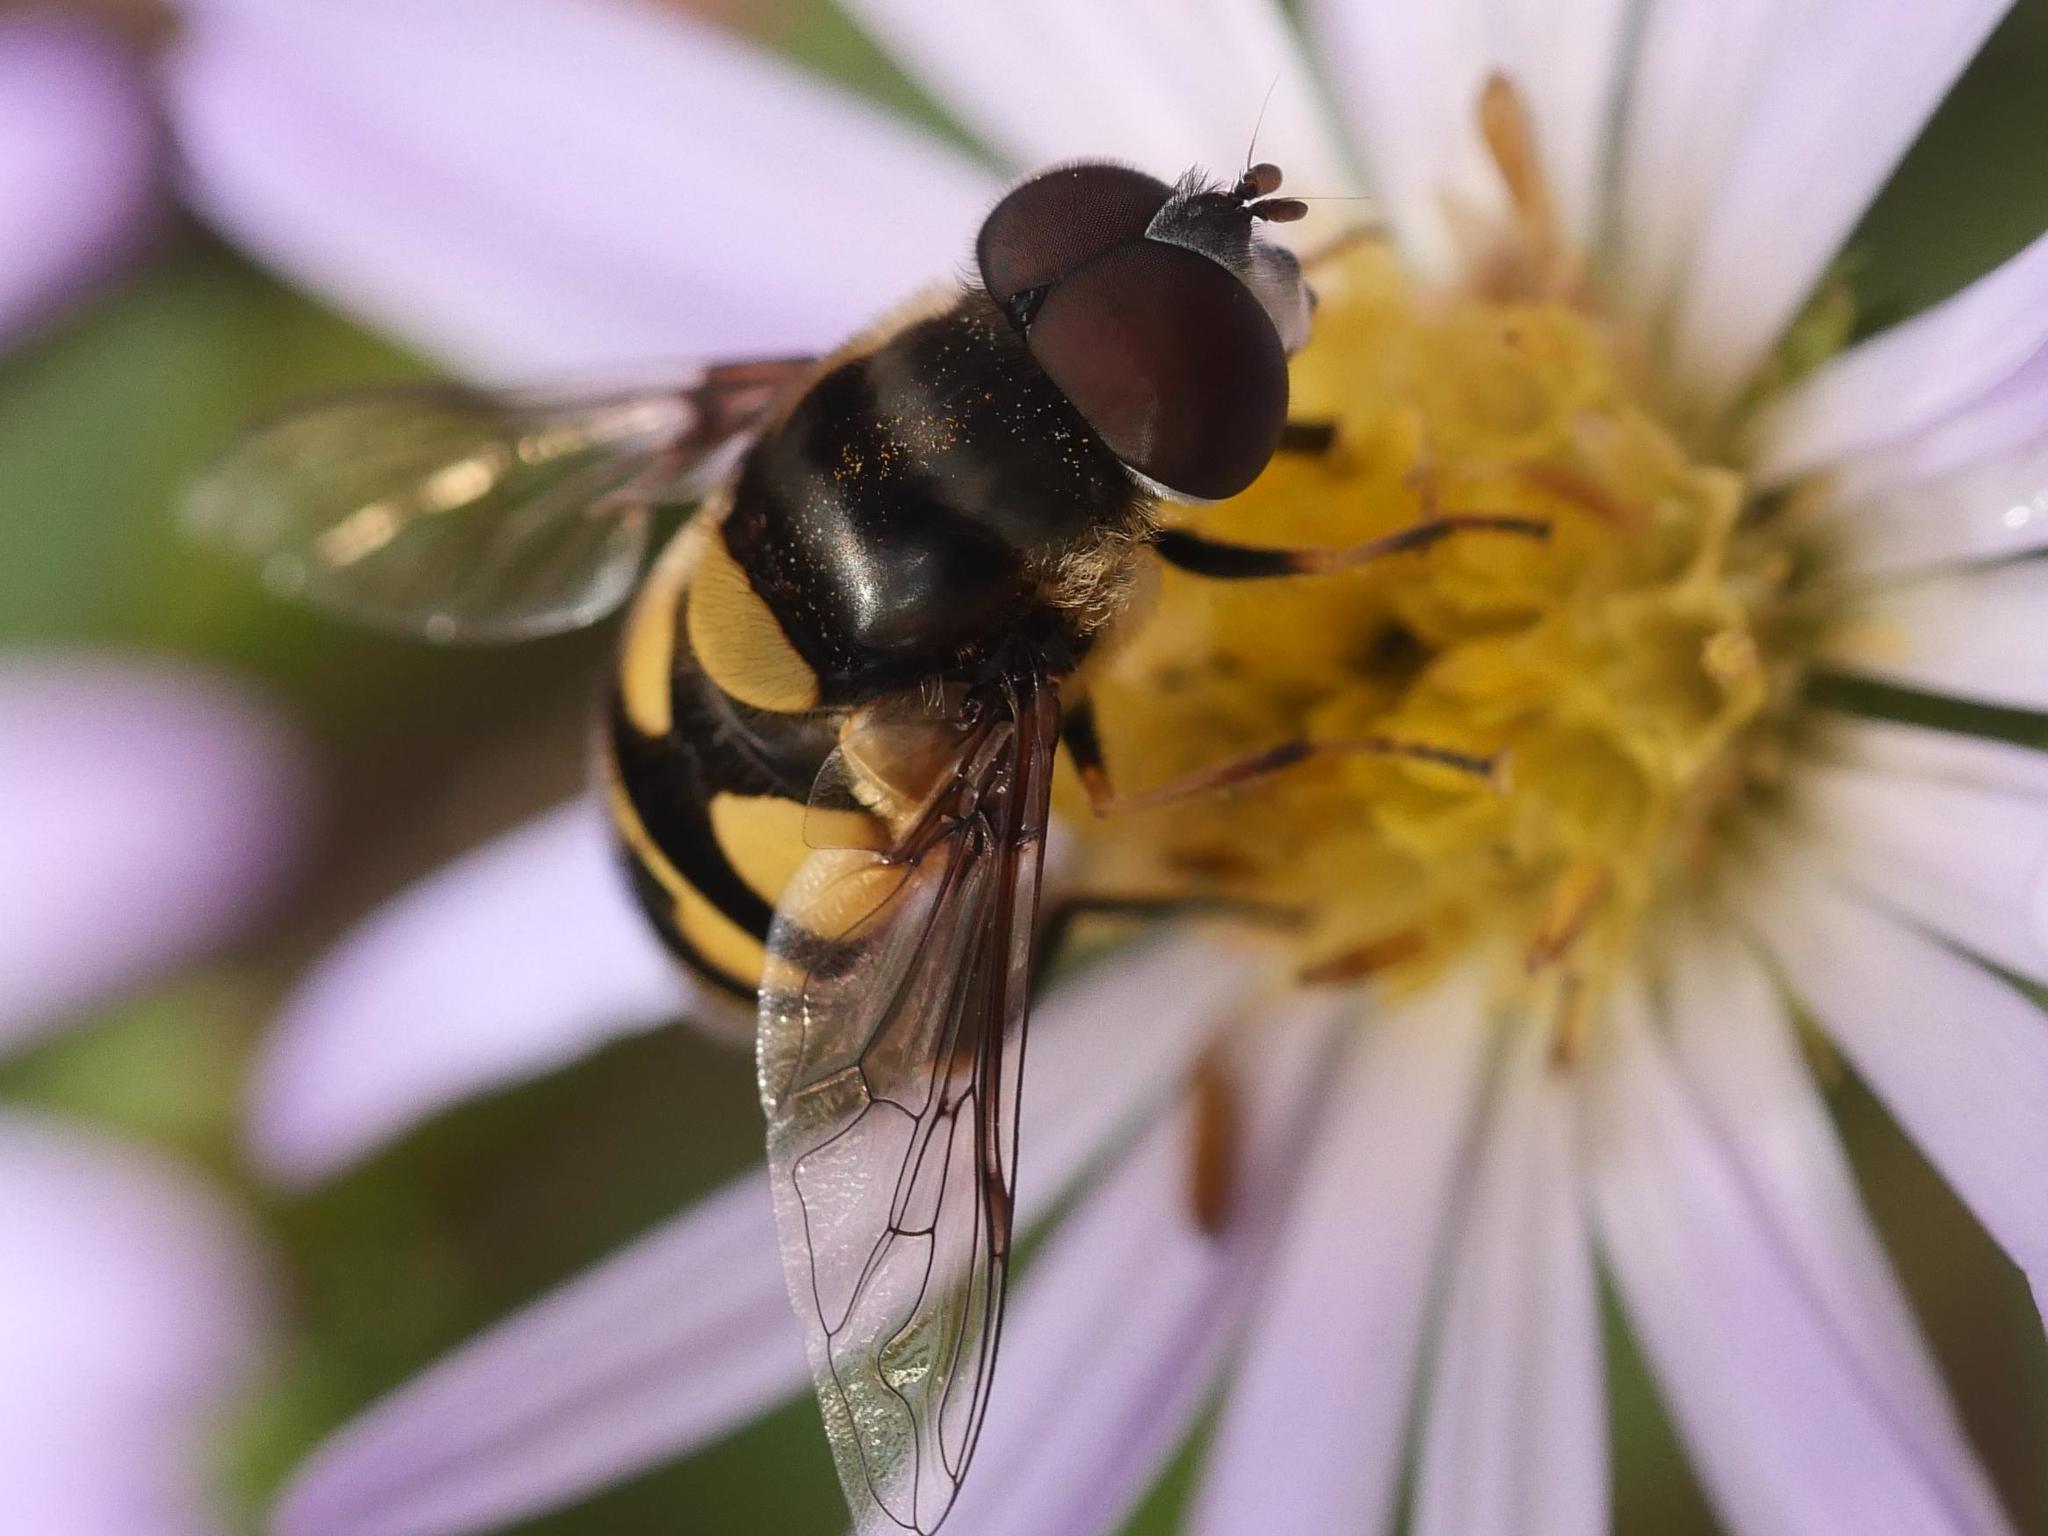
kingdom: Animalia
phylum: Arthropoda
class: Insecta
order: Diptera
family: Syrphidae
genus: Eristalis
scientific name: Eristalis transversa
